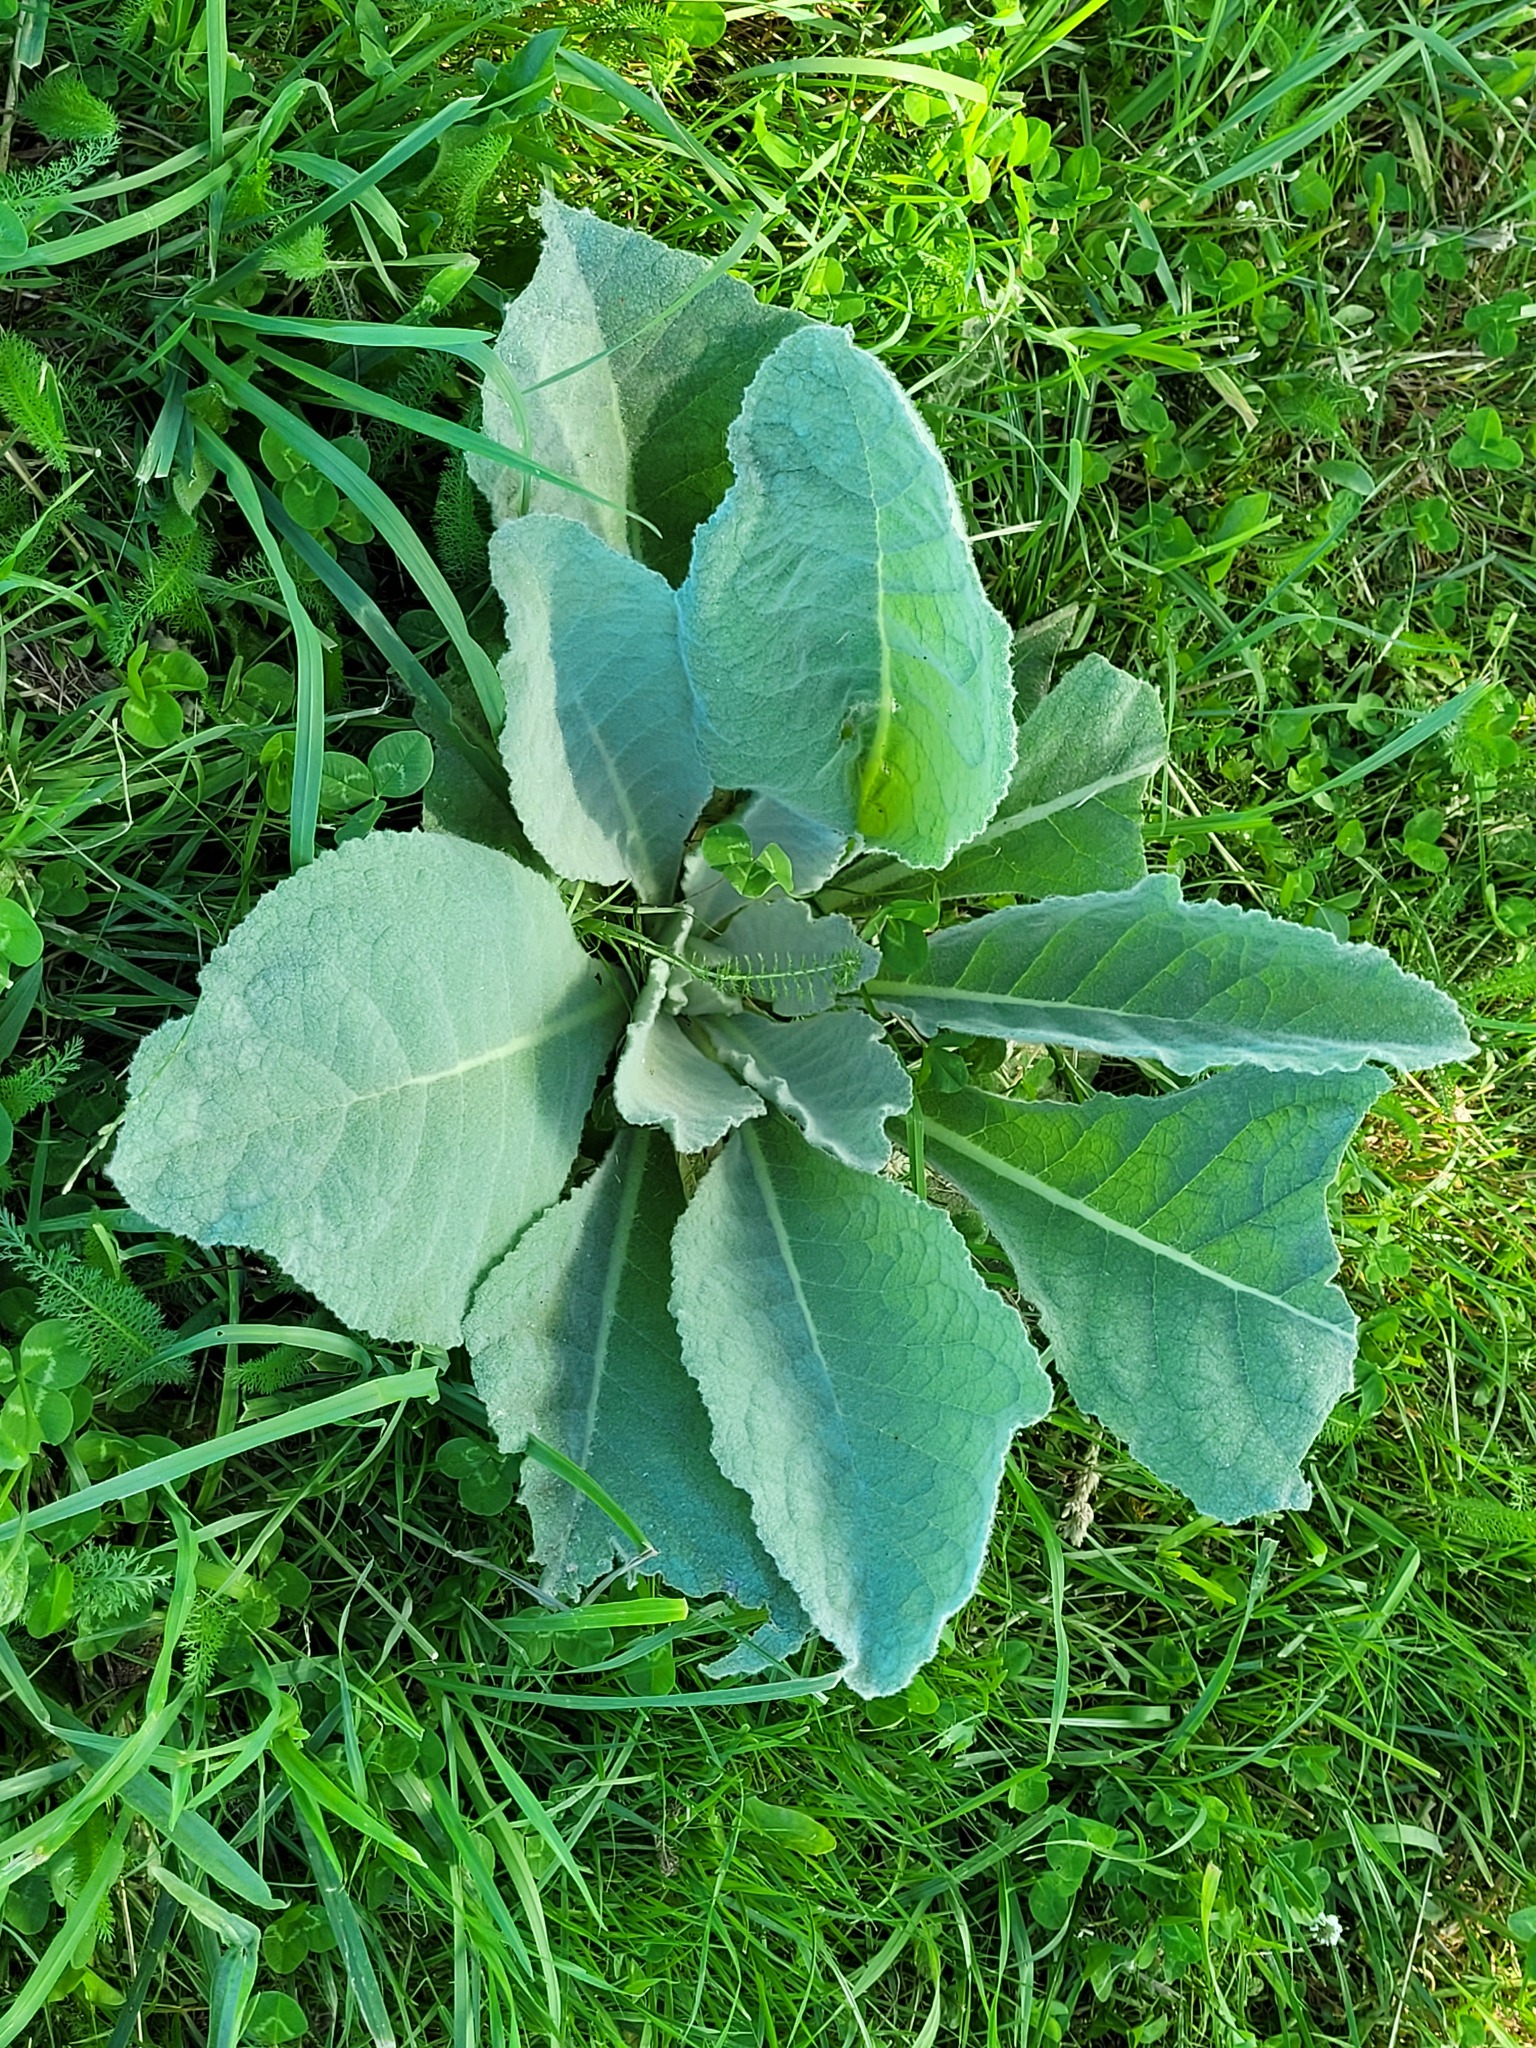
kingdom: Plantae
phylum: Tracheophyta
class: Magnoliopsida
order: Lamiales
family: Scrophulariaceae
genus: Verbascum
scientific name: Verbascum thapsus
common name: Common mullein
